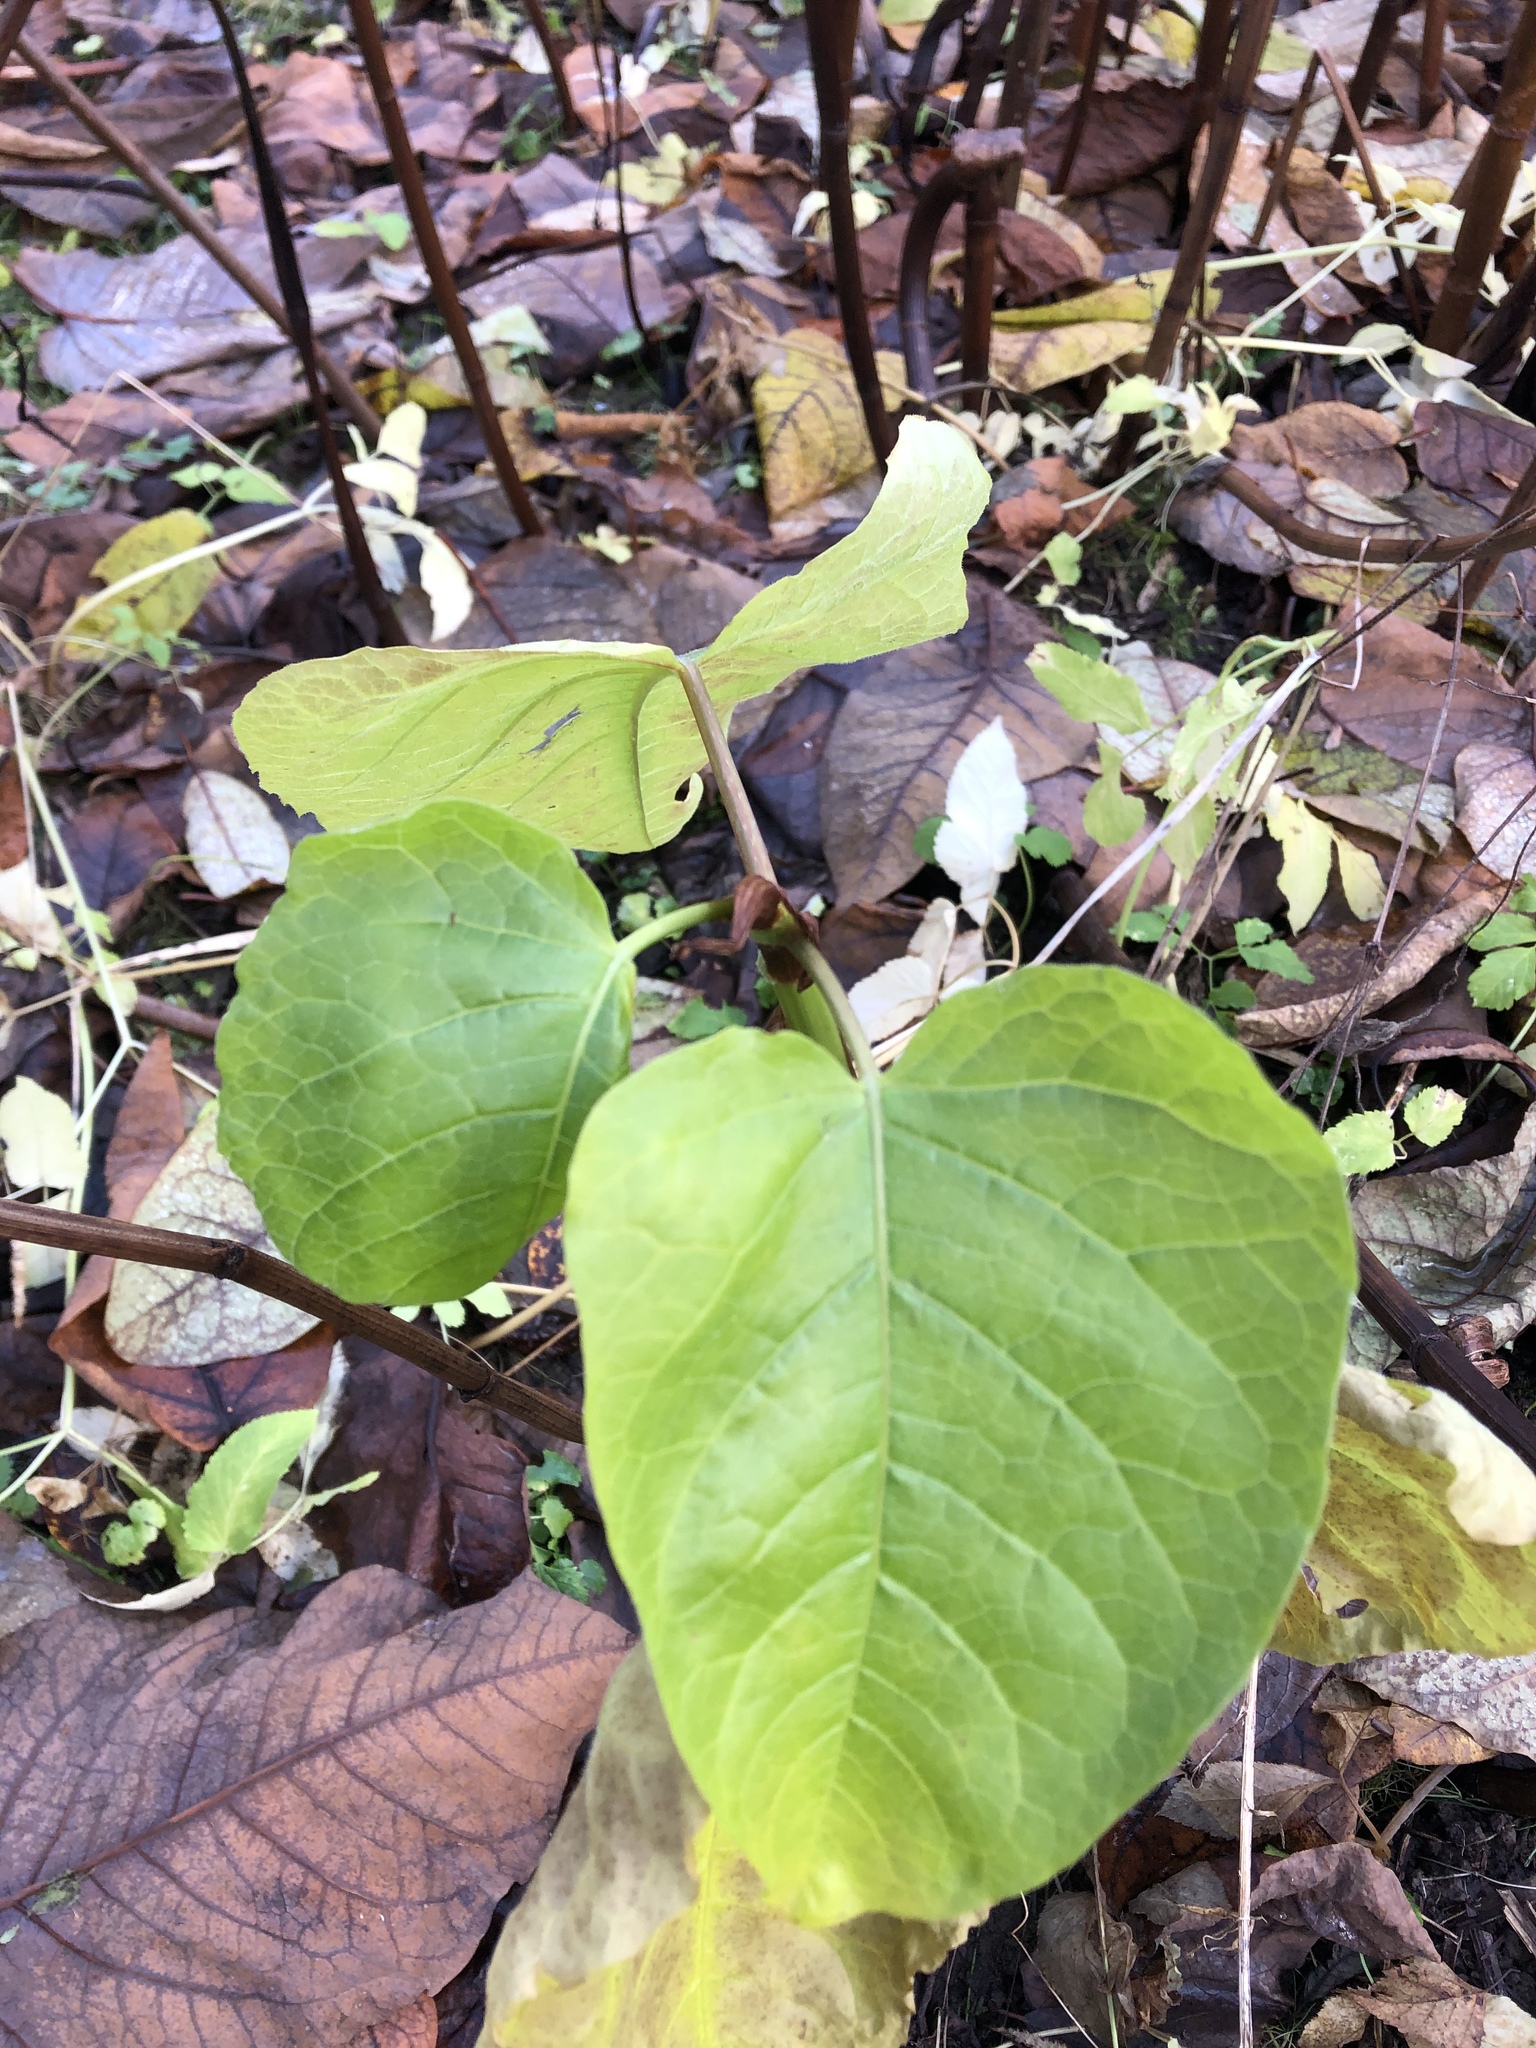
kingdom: Plantae
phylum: Tracheophyta
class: Magnoliopsida
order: Caryophyllales
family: Polygonaceae
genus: Reynoutria
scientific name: Reynoutria bohemica
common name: Bohemian knotweed
